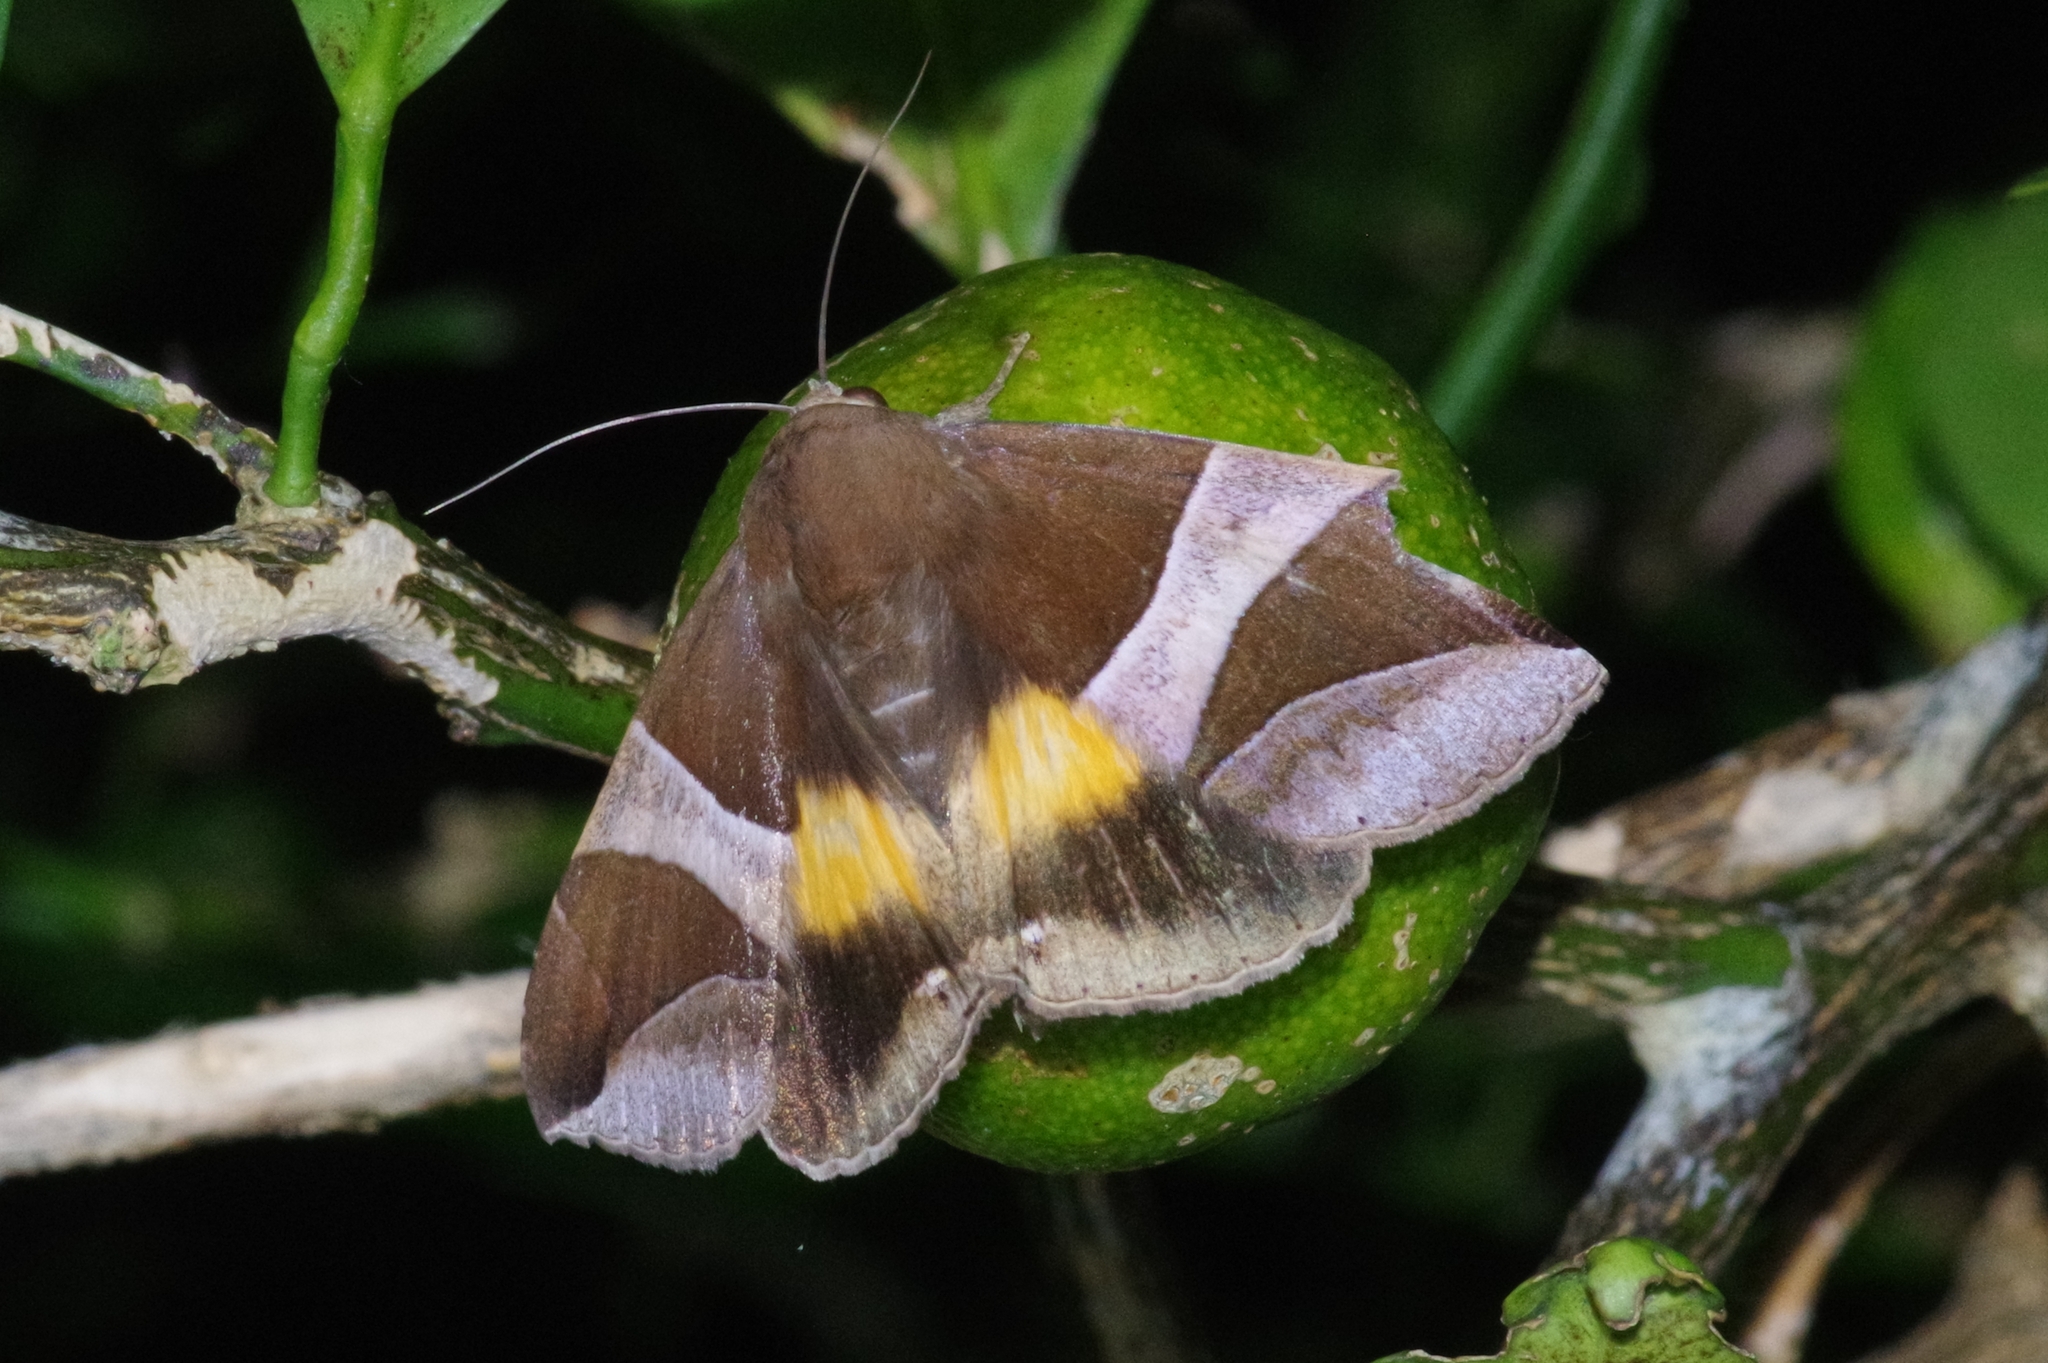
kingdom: Animalia
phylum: Arthropoda
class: Insecta
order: Lepidoptera
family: Erebidae
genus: Bastilla
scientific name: Bastilla fulvotaenia
